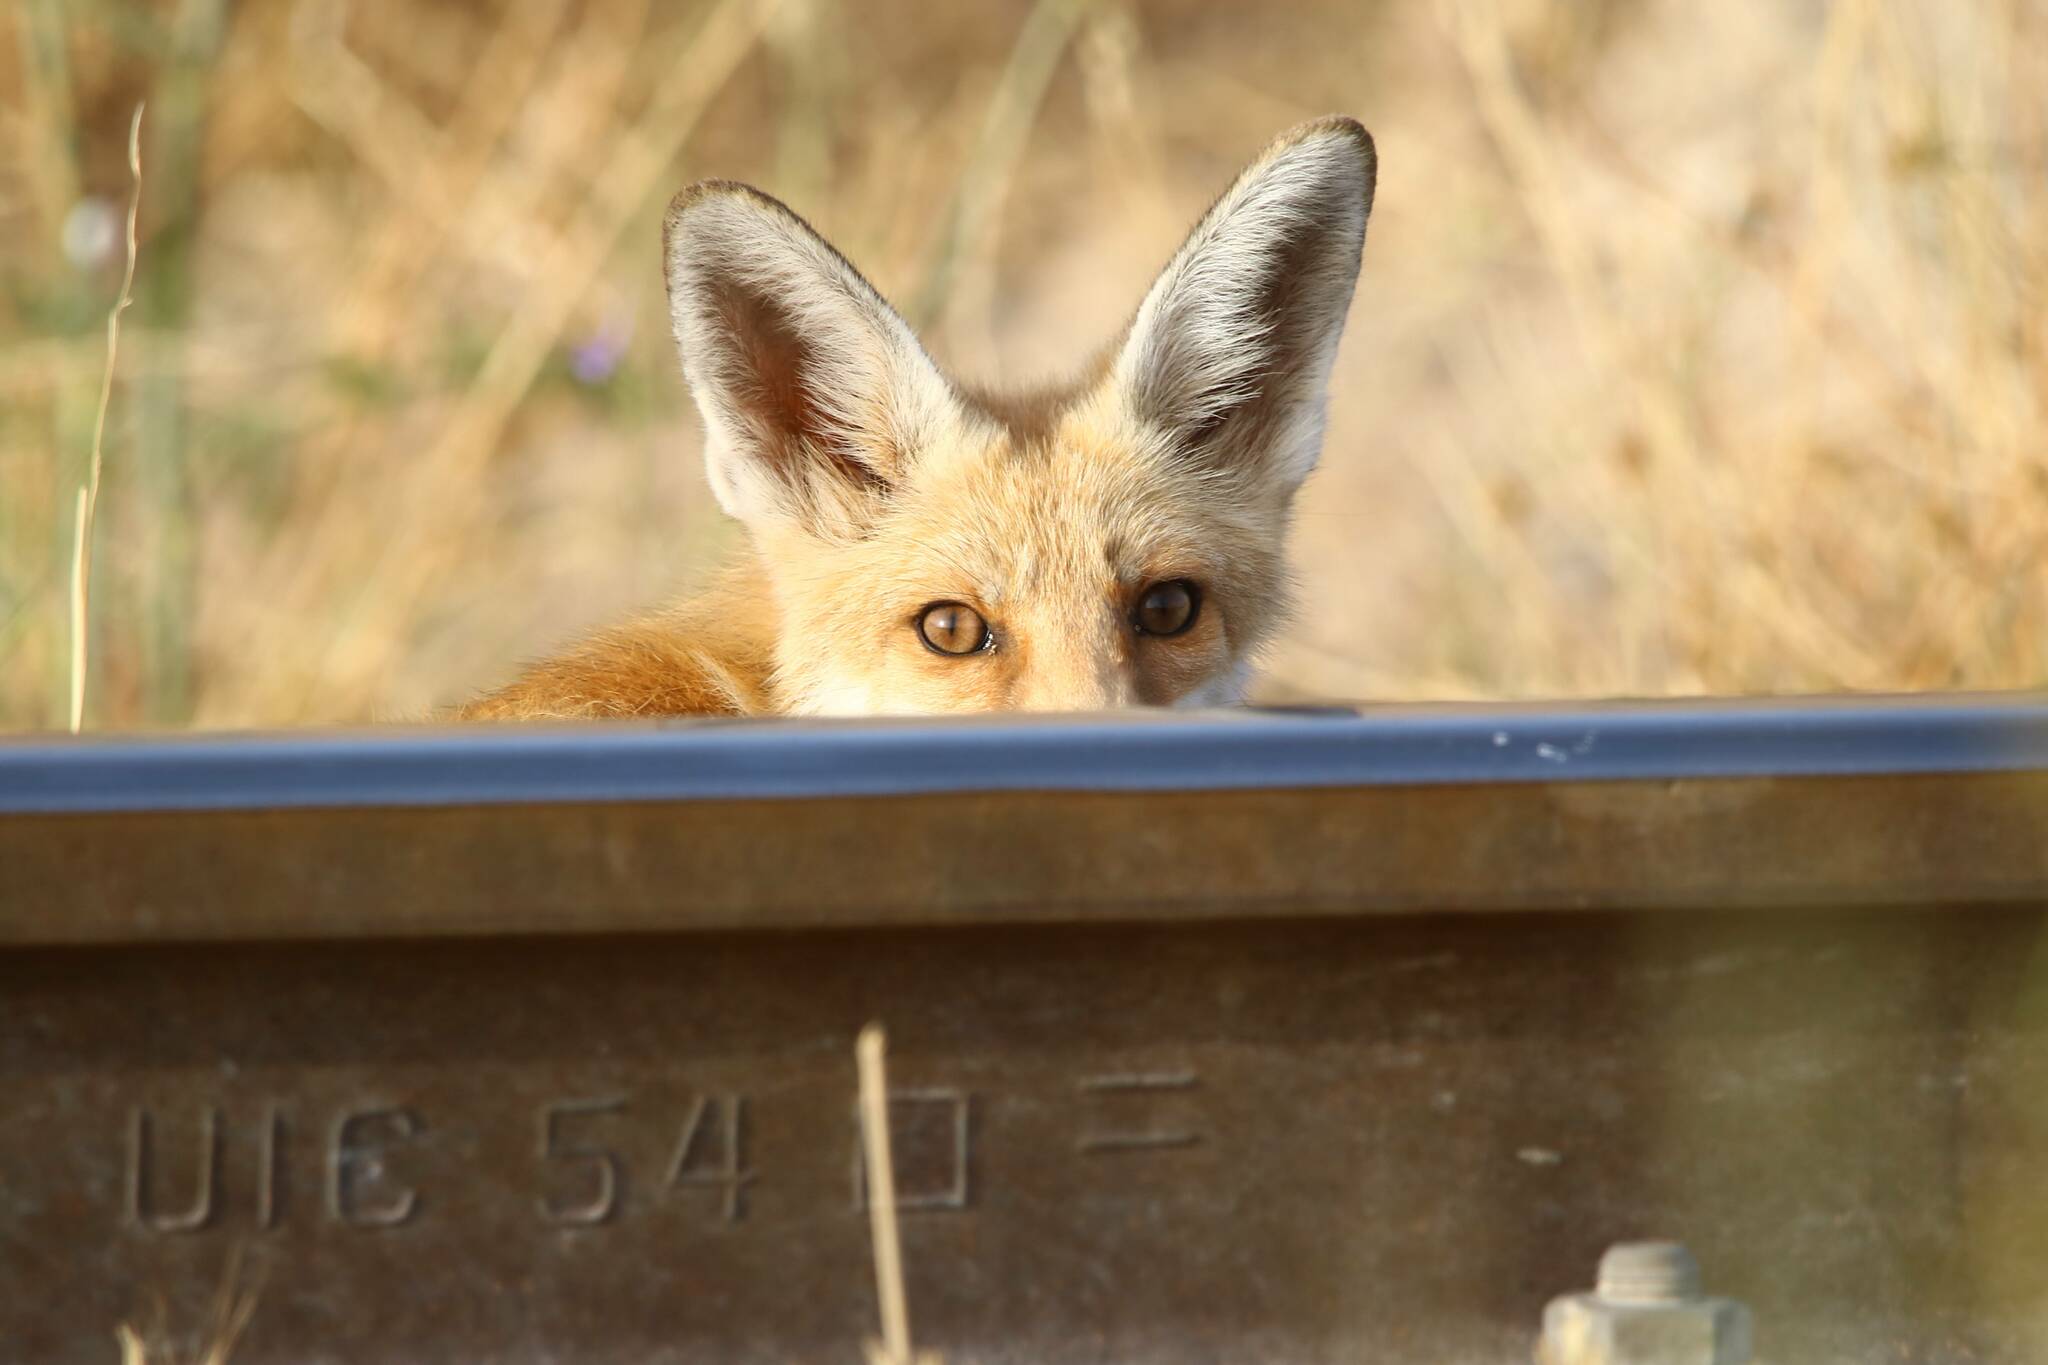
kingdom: Animalia
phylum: Chordata
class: Mammalia
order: Carnivora
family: Canidae
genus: Vulpes
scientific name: Vulpes vulpes
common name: Red fox
